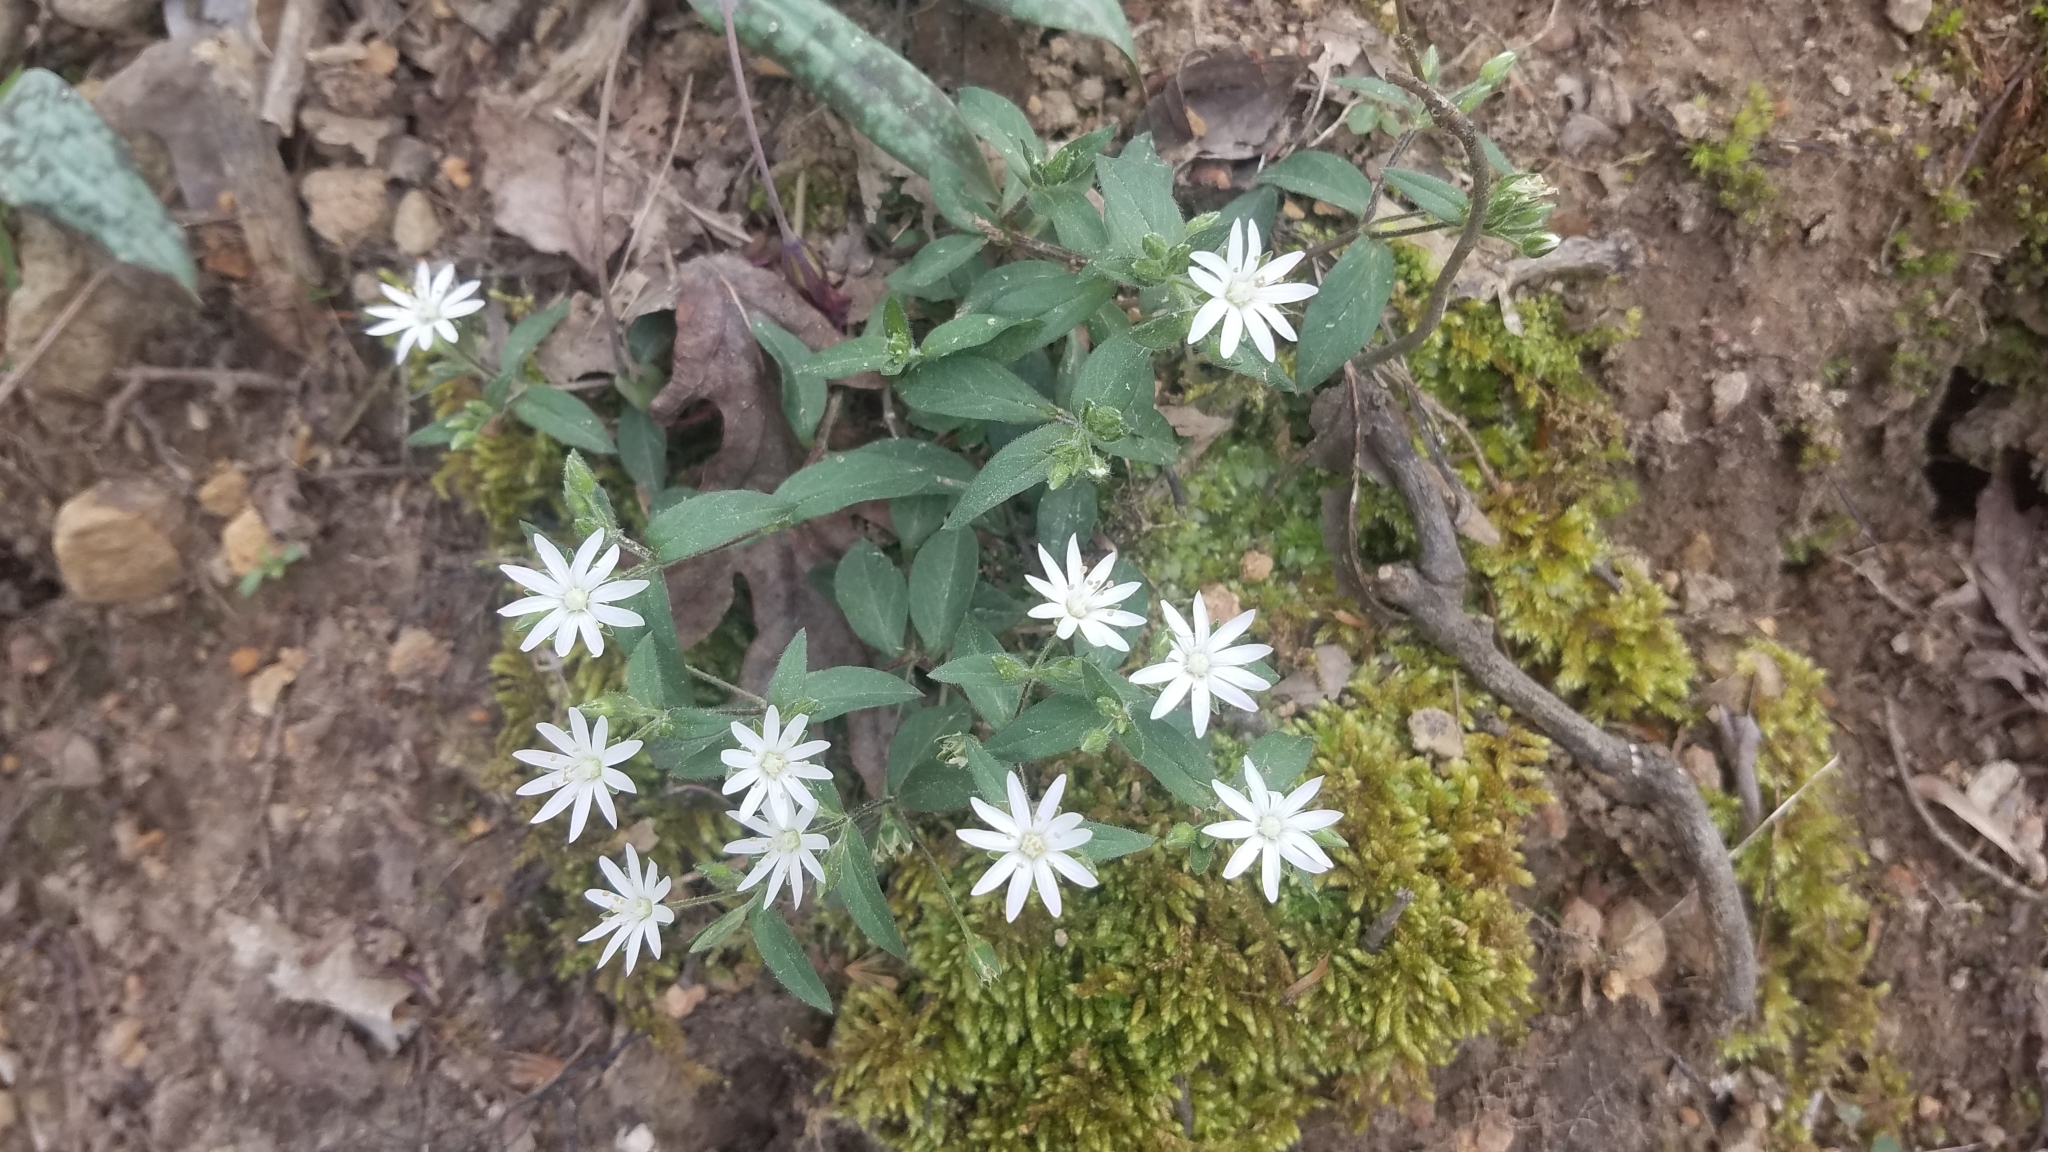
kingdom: Plantae
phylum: Tracheophyta
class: Magnoliopsida
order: Caryophyllales
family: Caryophyllaceae
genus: Stellaria
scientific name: Stellaria pubera
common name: Star chickweed
